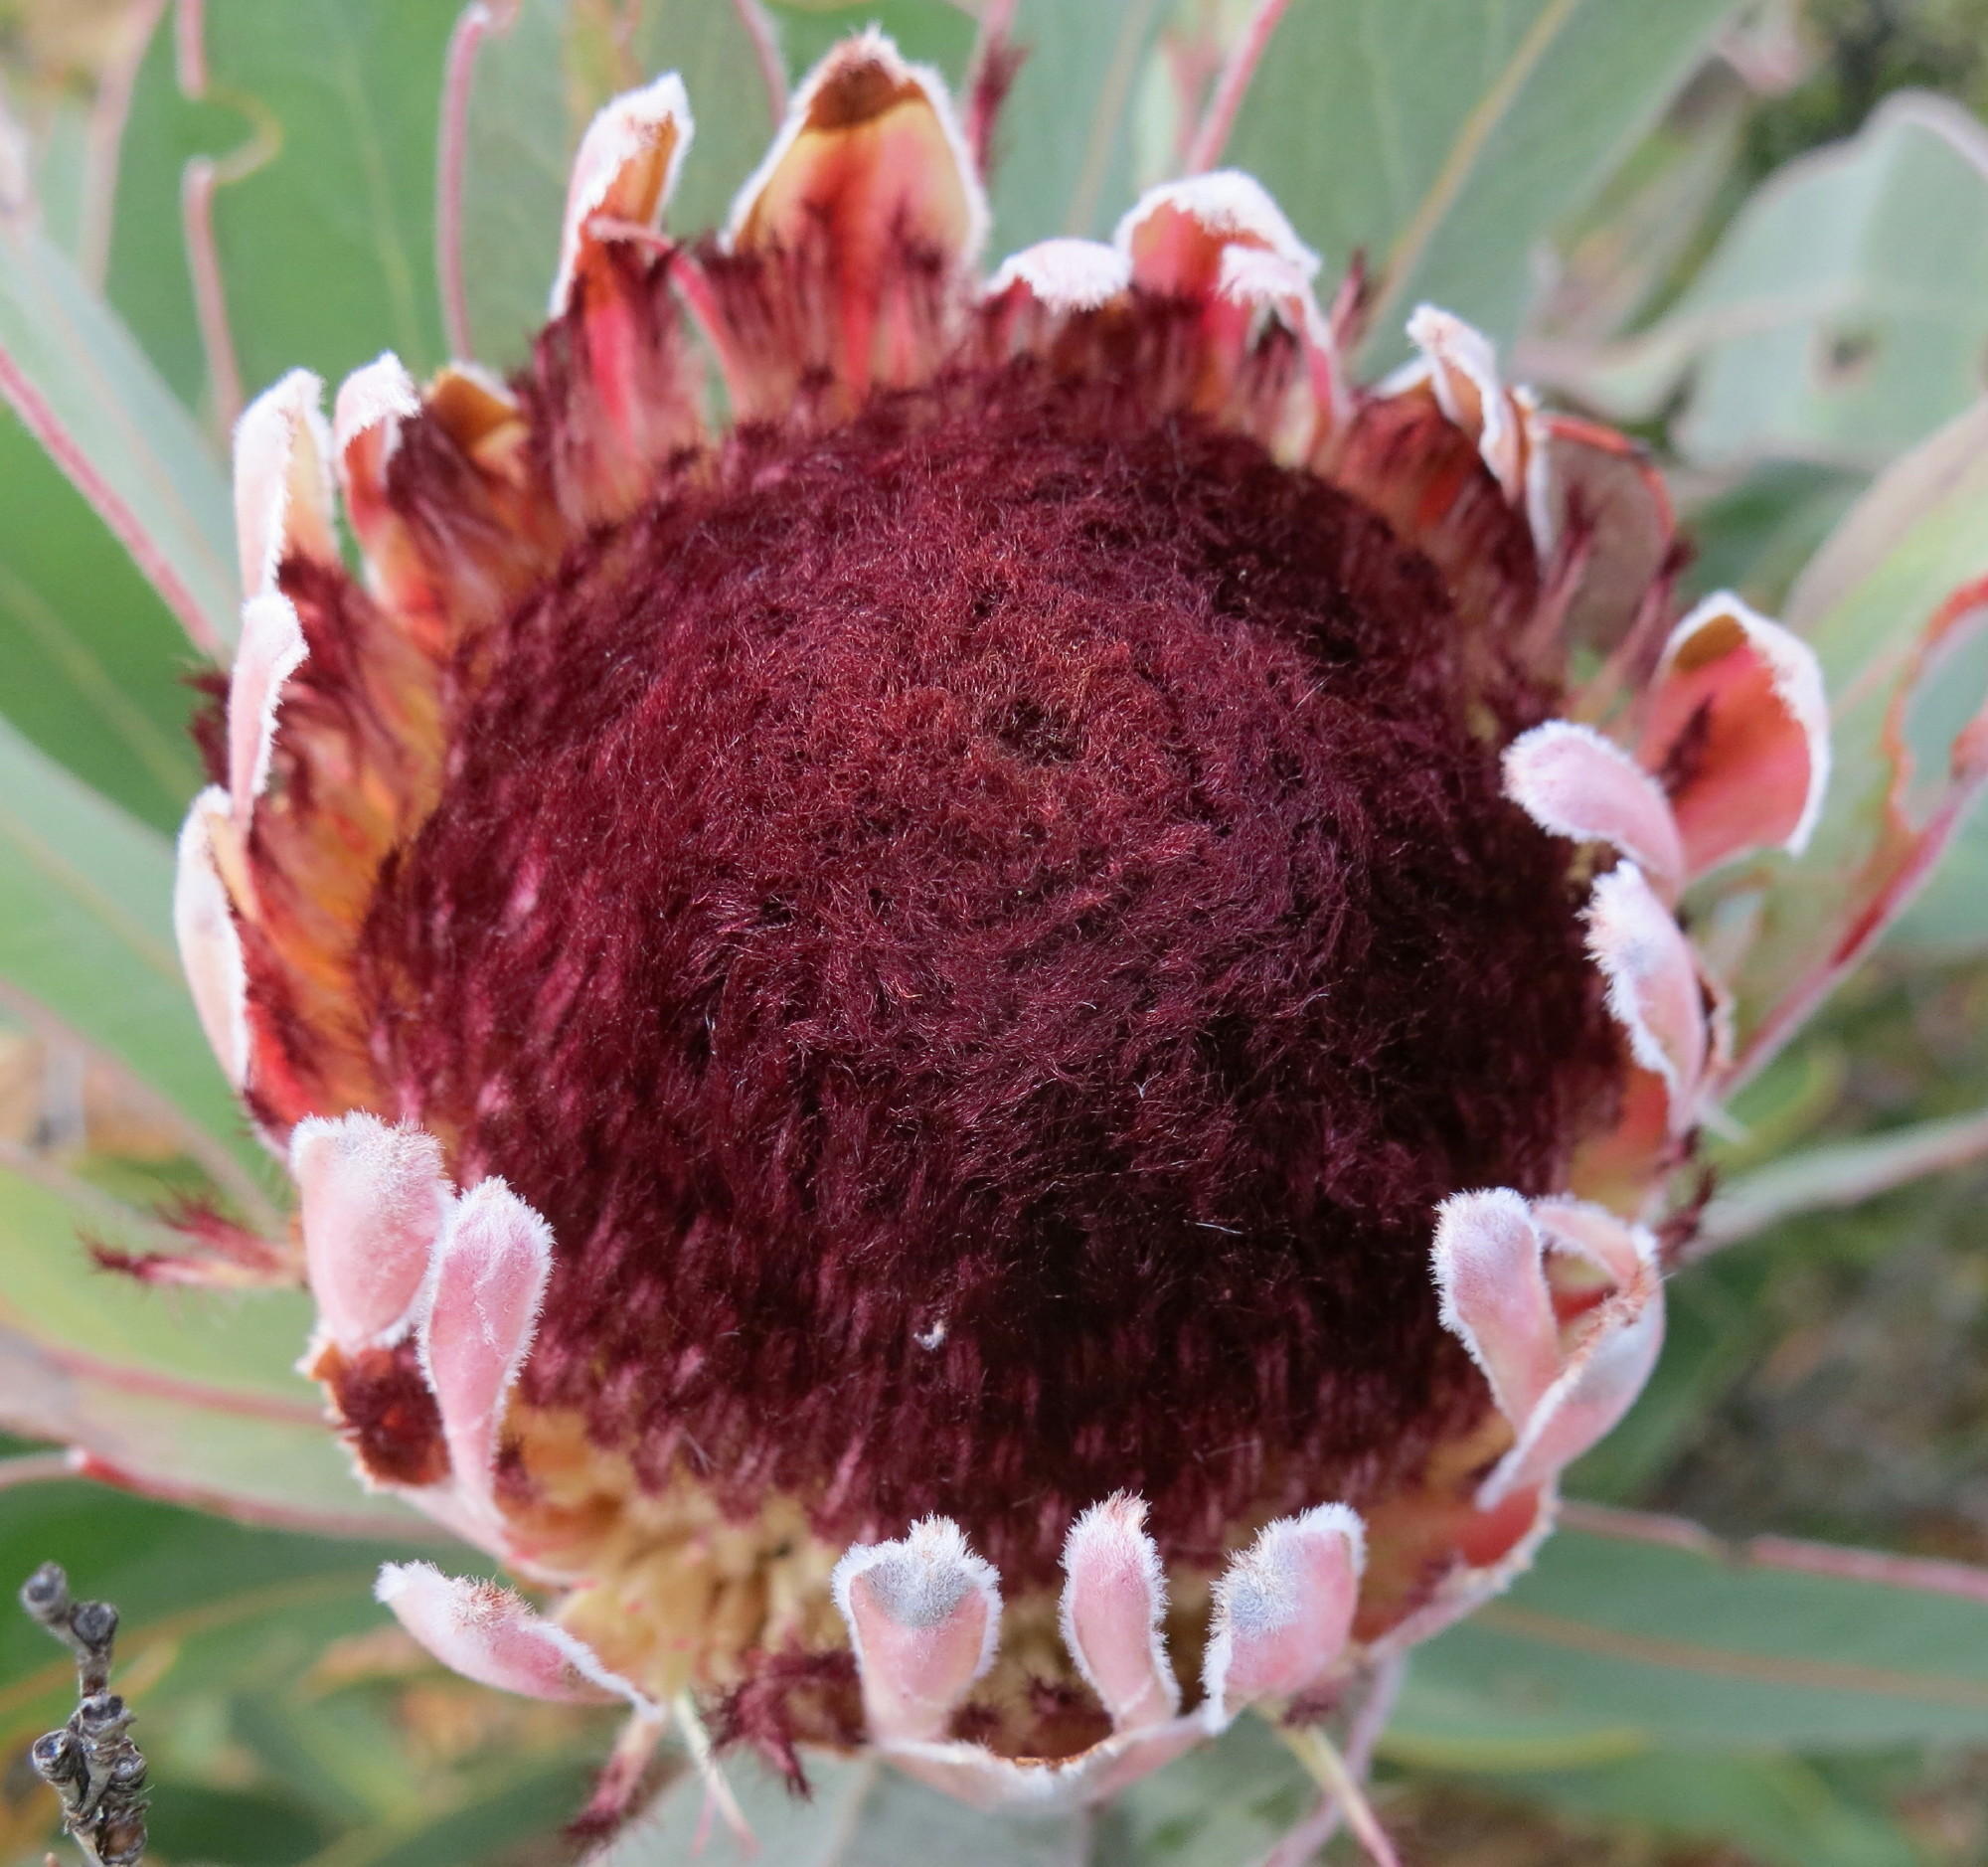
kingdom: Plantae
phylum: Tracheophyta
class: Magnoliopsida
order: Proteales
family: Proteaceae
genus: Protea
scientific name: Protea lorifolia
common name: Strap-leaved protea
